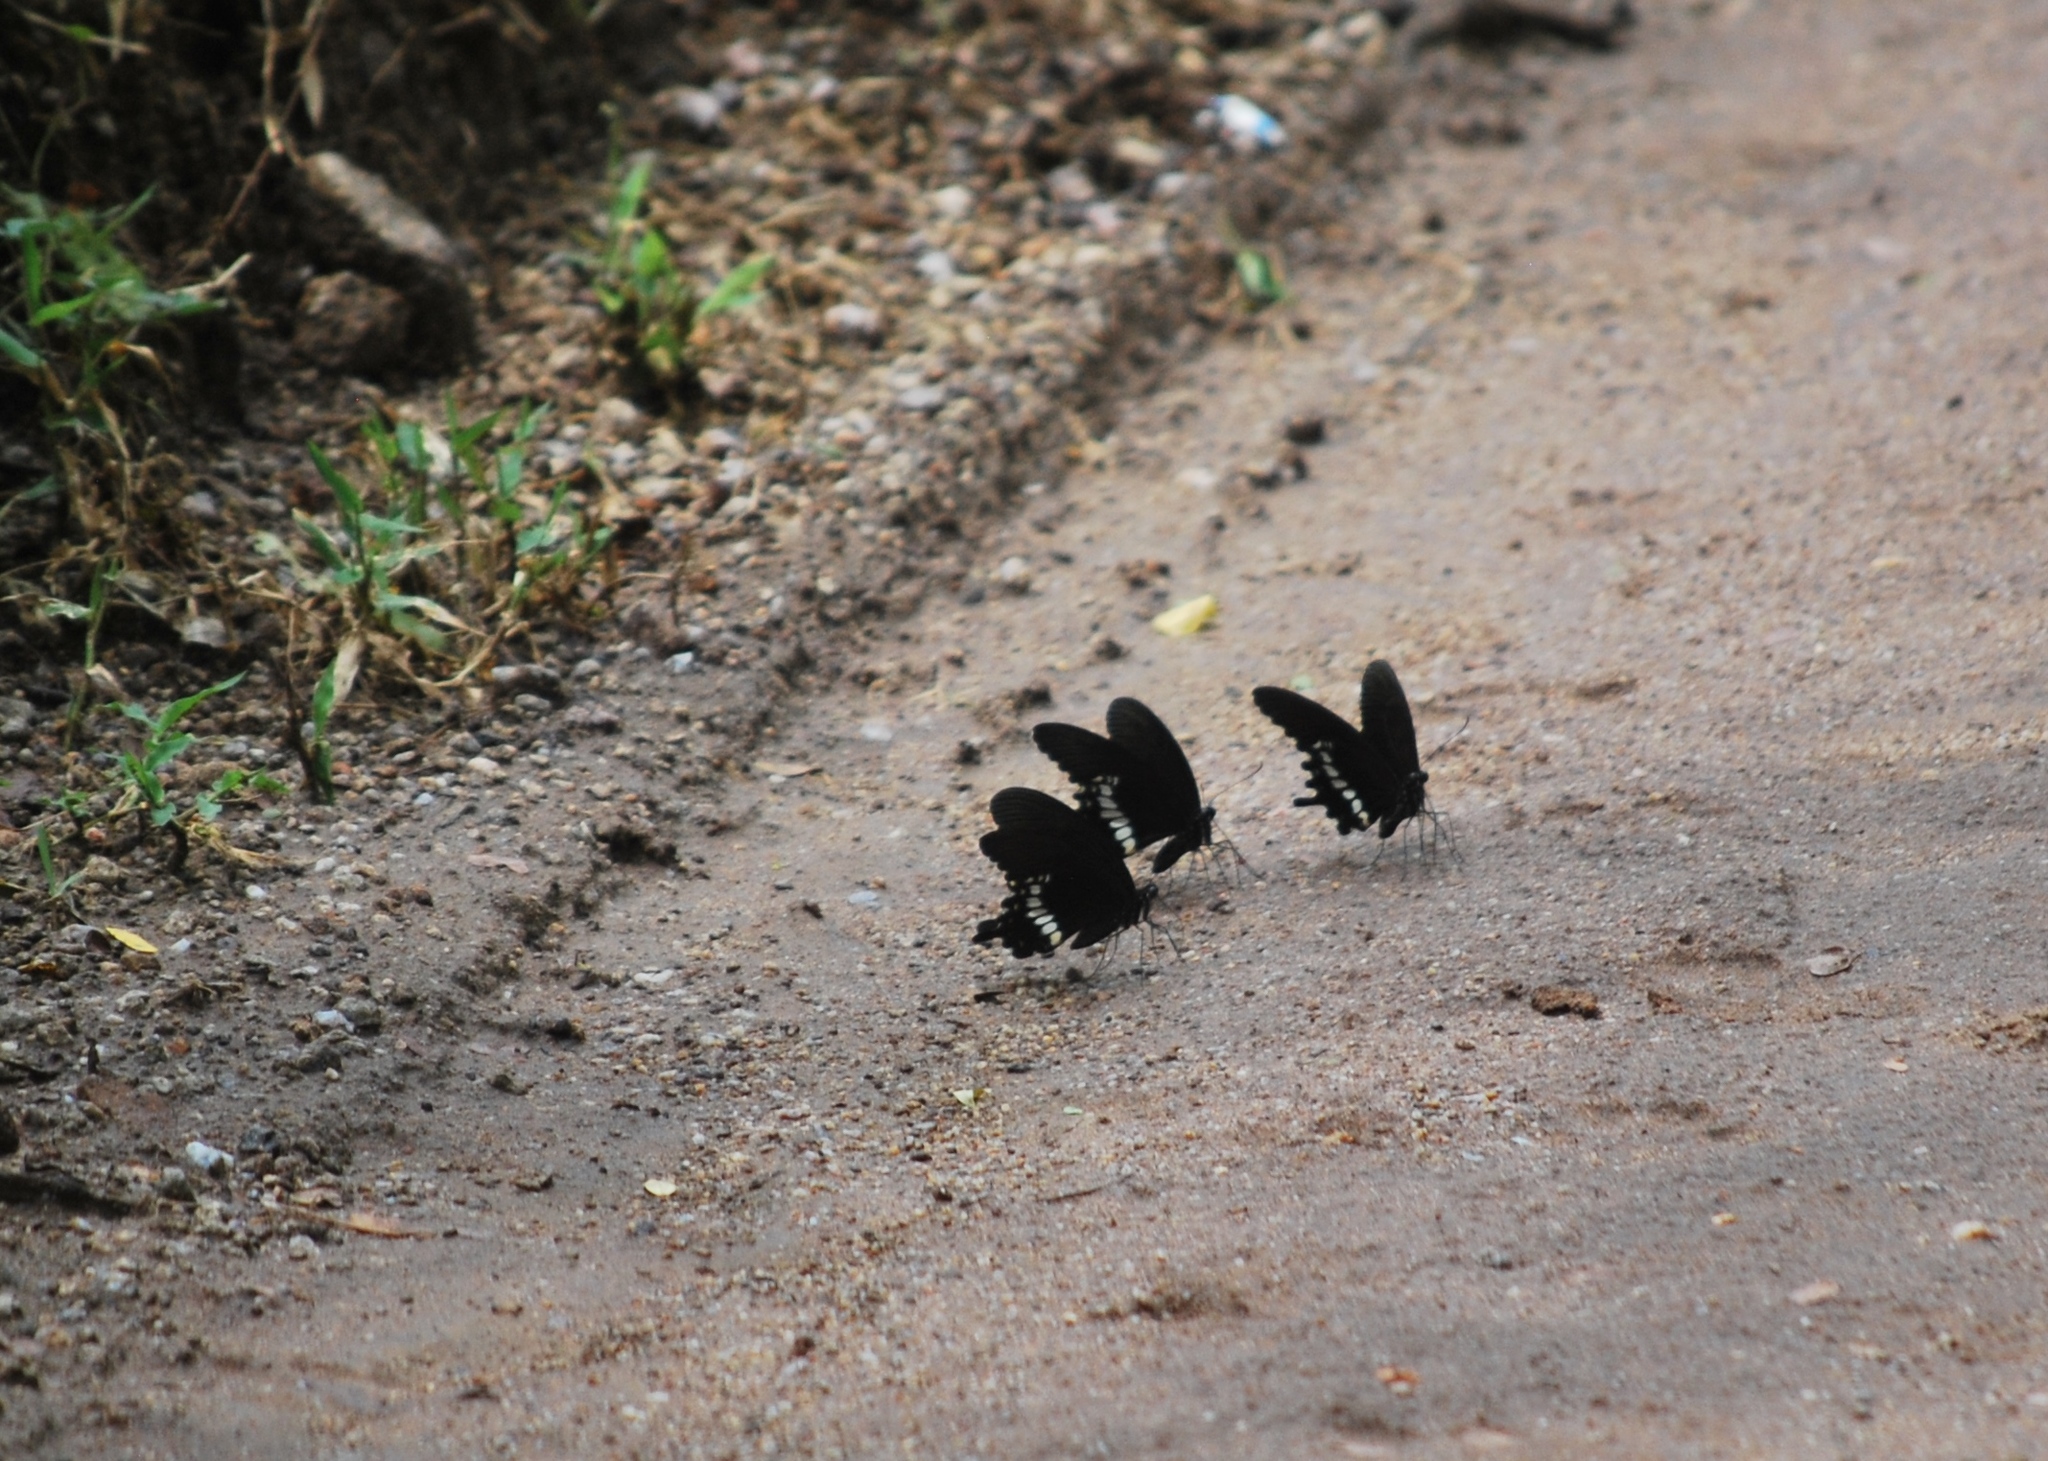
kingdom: Animalia
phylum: Arthropoda
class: Insecta
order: Lepidoptera
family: Papilionidae
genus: Papilio
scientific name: Papilio polytes
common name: Common mormon
